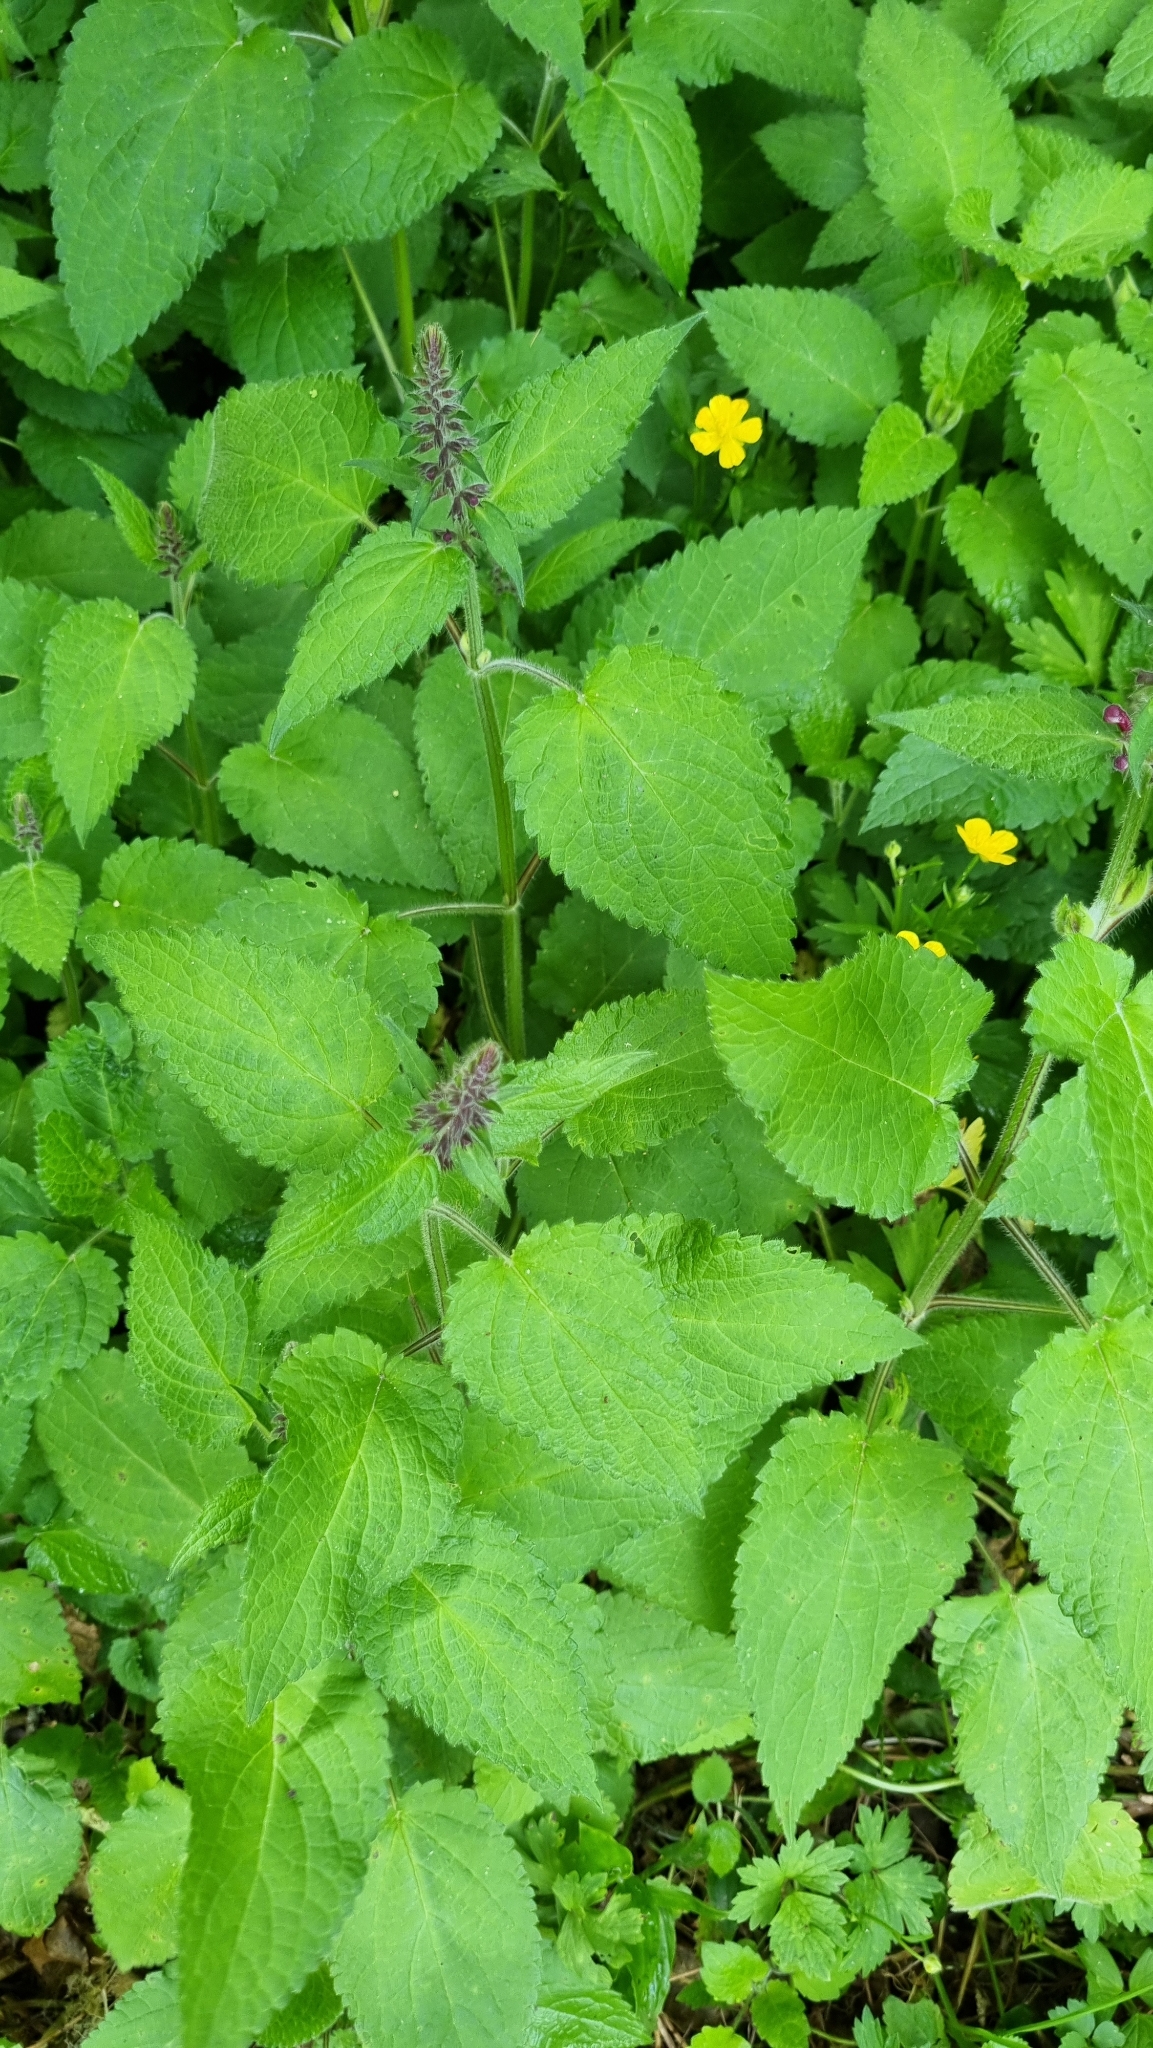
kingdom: Plantae
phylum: Tracheophyta
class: Magnoliopsida
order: Lamiales
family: Lamiaceae
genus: Stachys
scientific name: Stachys sylvatica
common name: Hedge woundwort
